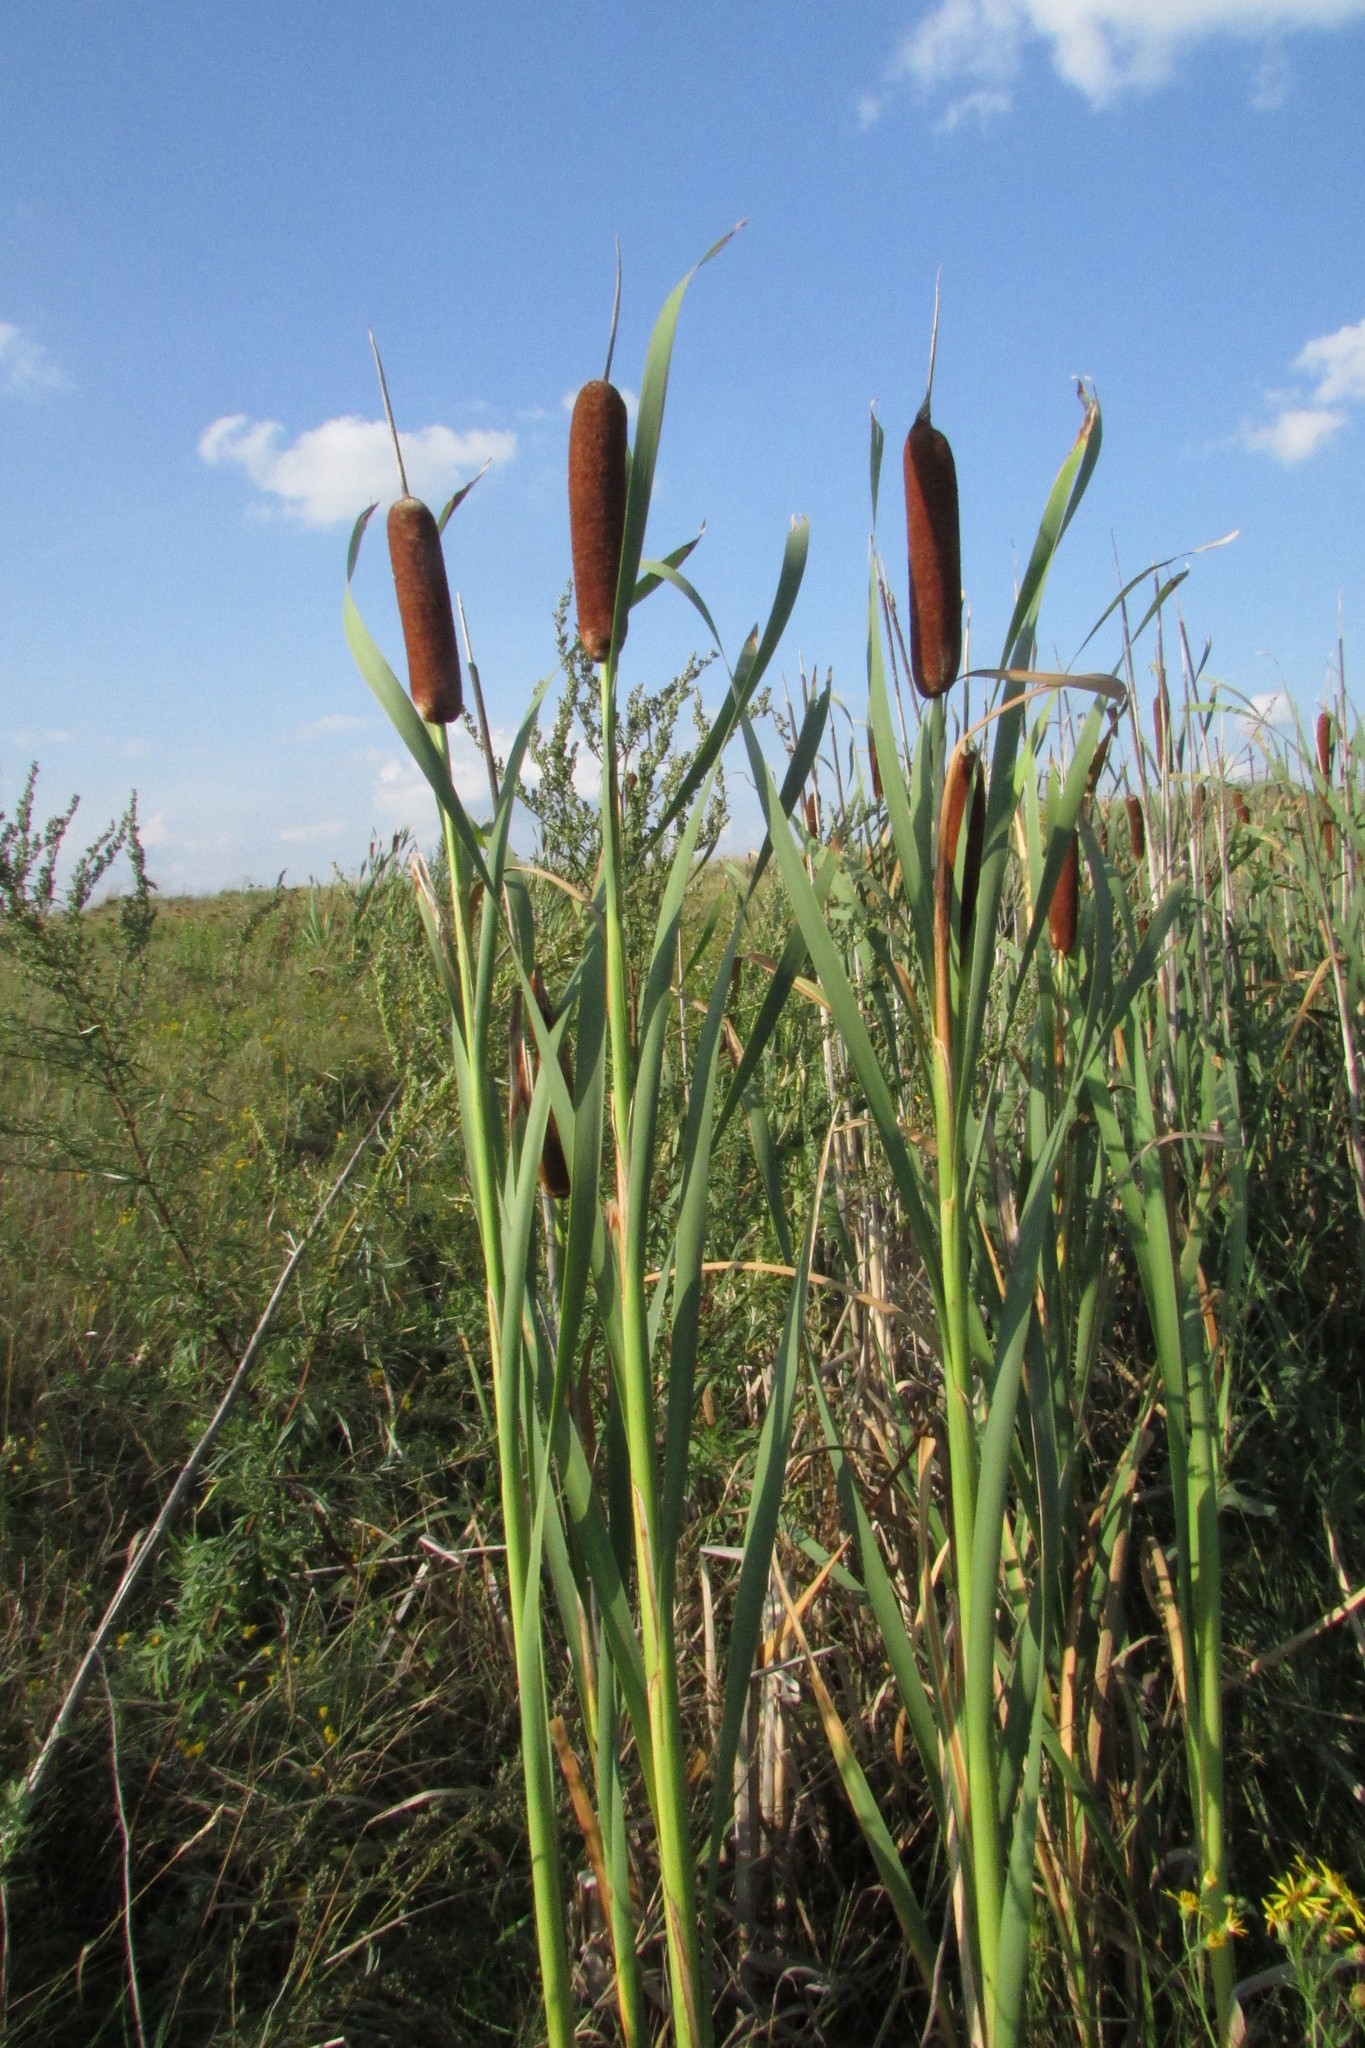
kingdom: Plantae
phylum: Tracheophyta
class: Liliopsida
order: Poales
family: Typhaceae
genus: Typha
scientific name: Typha latifolia
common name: Broadleaf cattail
